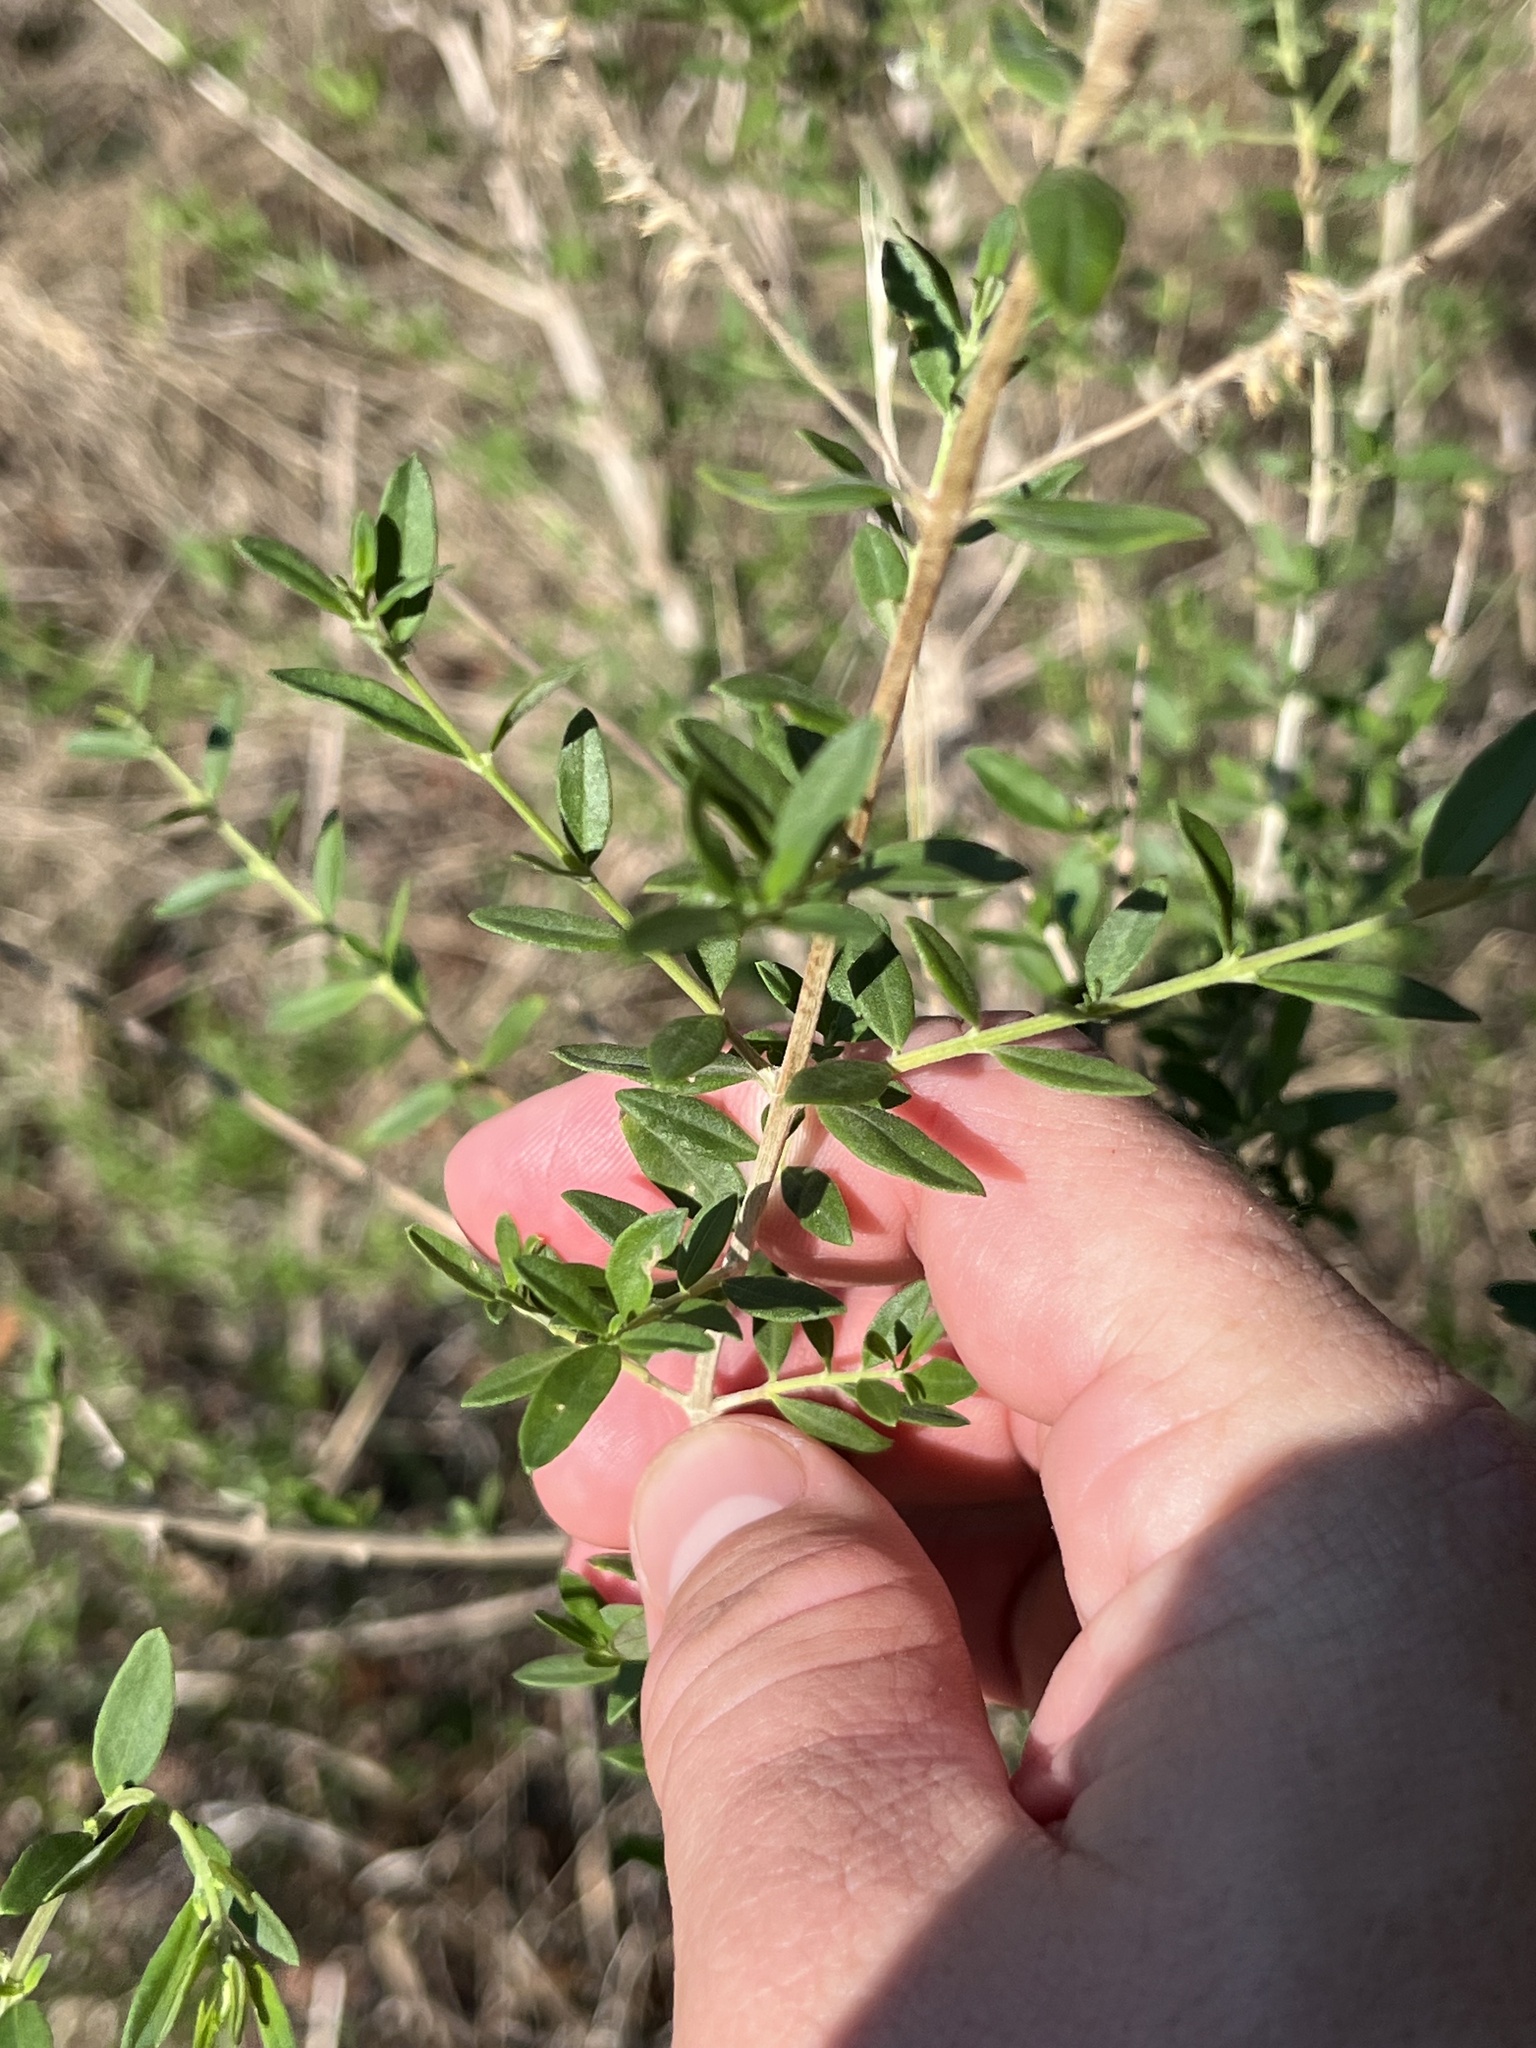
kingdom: Plantae
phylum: Tracheophyta
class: Magnoliopsida
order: Lamiales
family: Verbenaceae
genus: Aloysia
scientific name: Aloysia gratissima
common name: Common bee-brush
